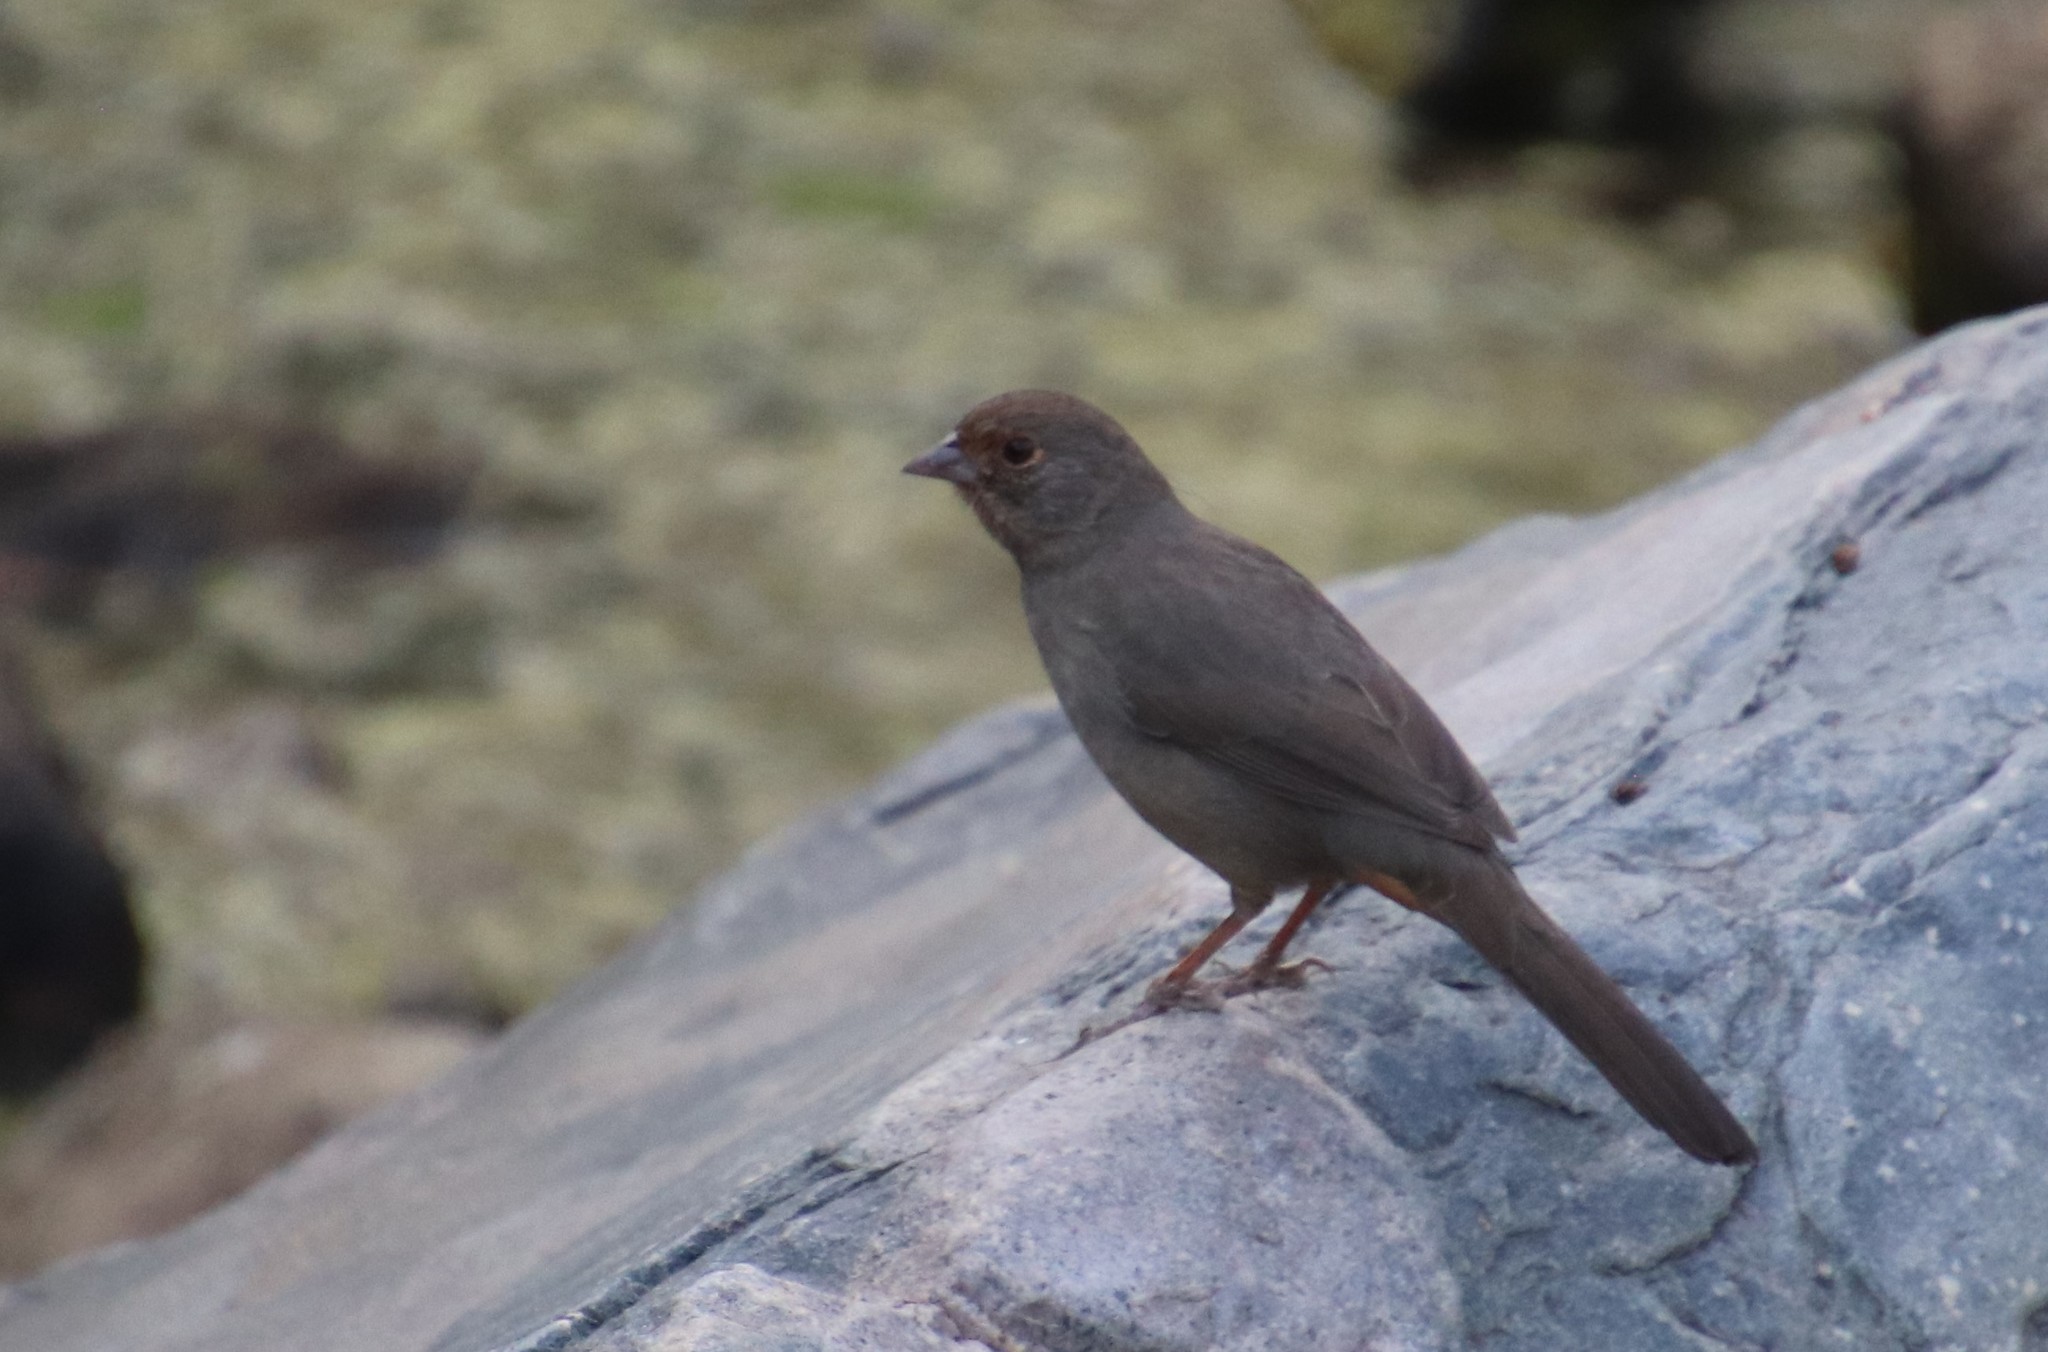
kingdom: Animalia
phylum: Chordata
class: Aves
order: Passeriformes
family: Passerellidae
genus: Melozone
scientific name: Melozone crissalis
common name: California towhee
